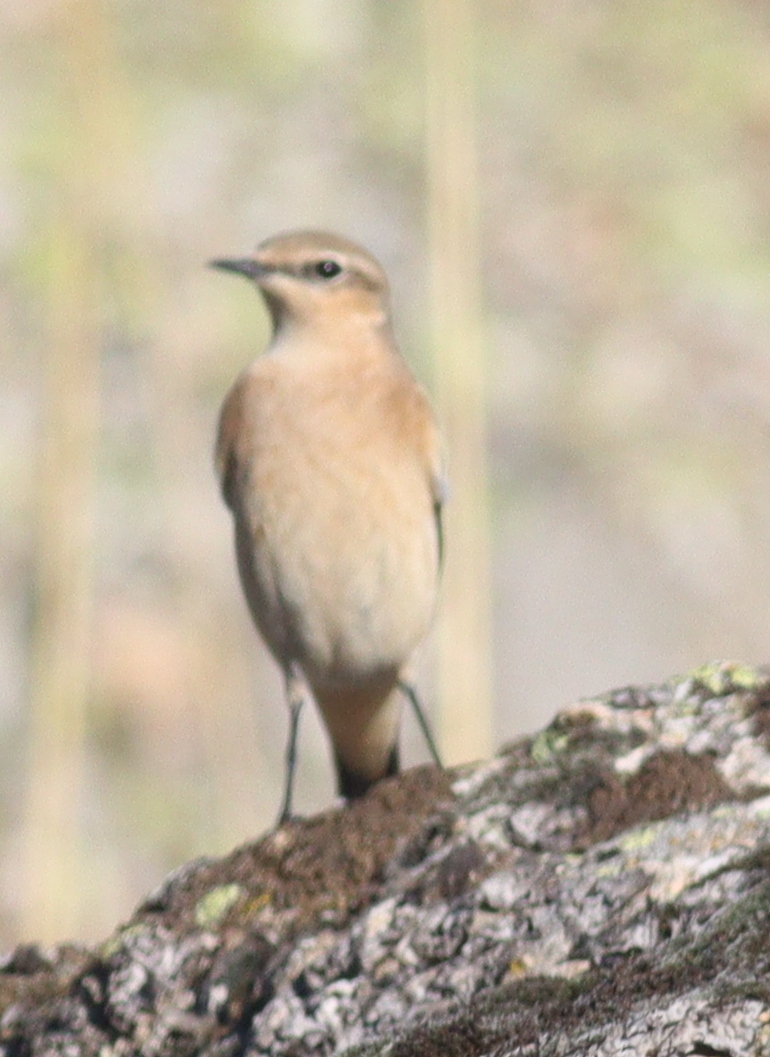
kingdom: Animalia
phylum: Chordata
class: Aves
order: Passeriformes
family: Muscicapidae
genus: Oenanthe
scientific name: Oenanthe oenanthe
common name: Northern wheatear
